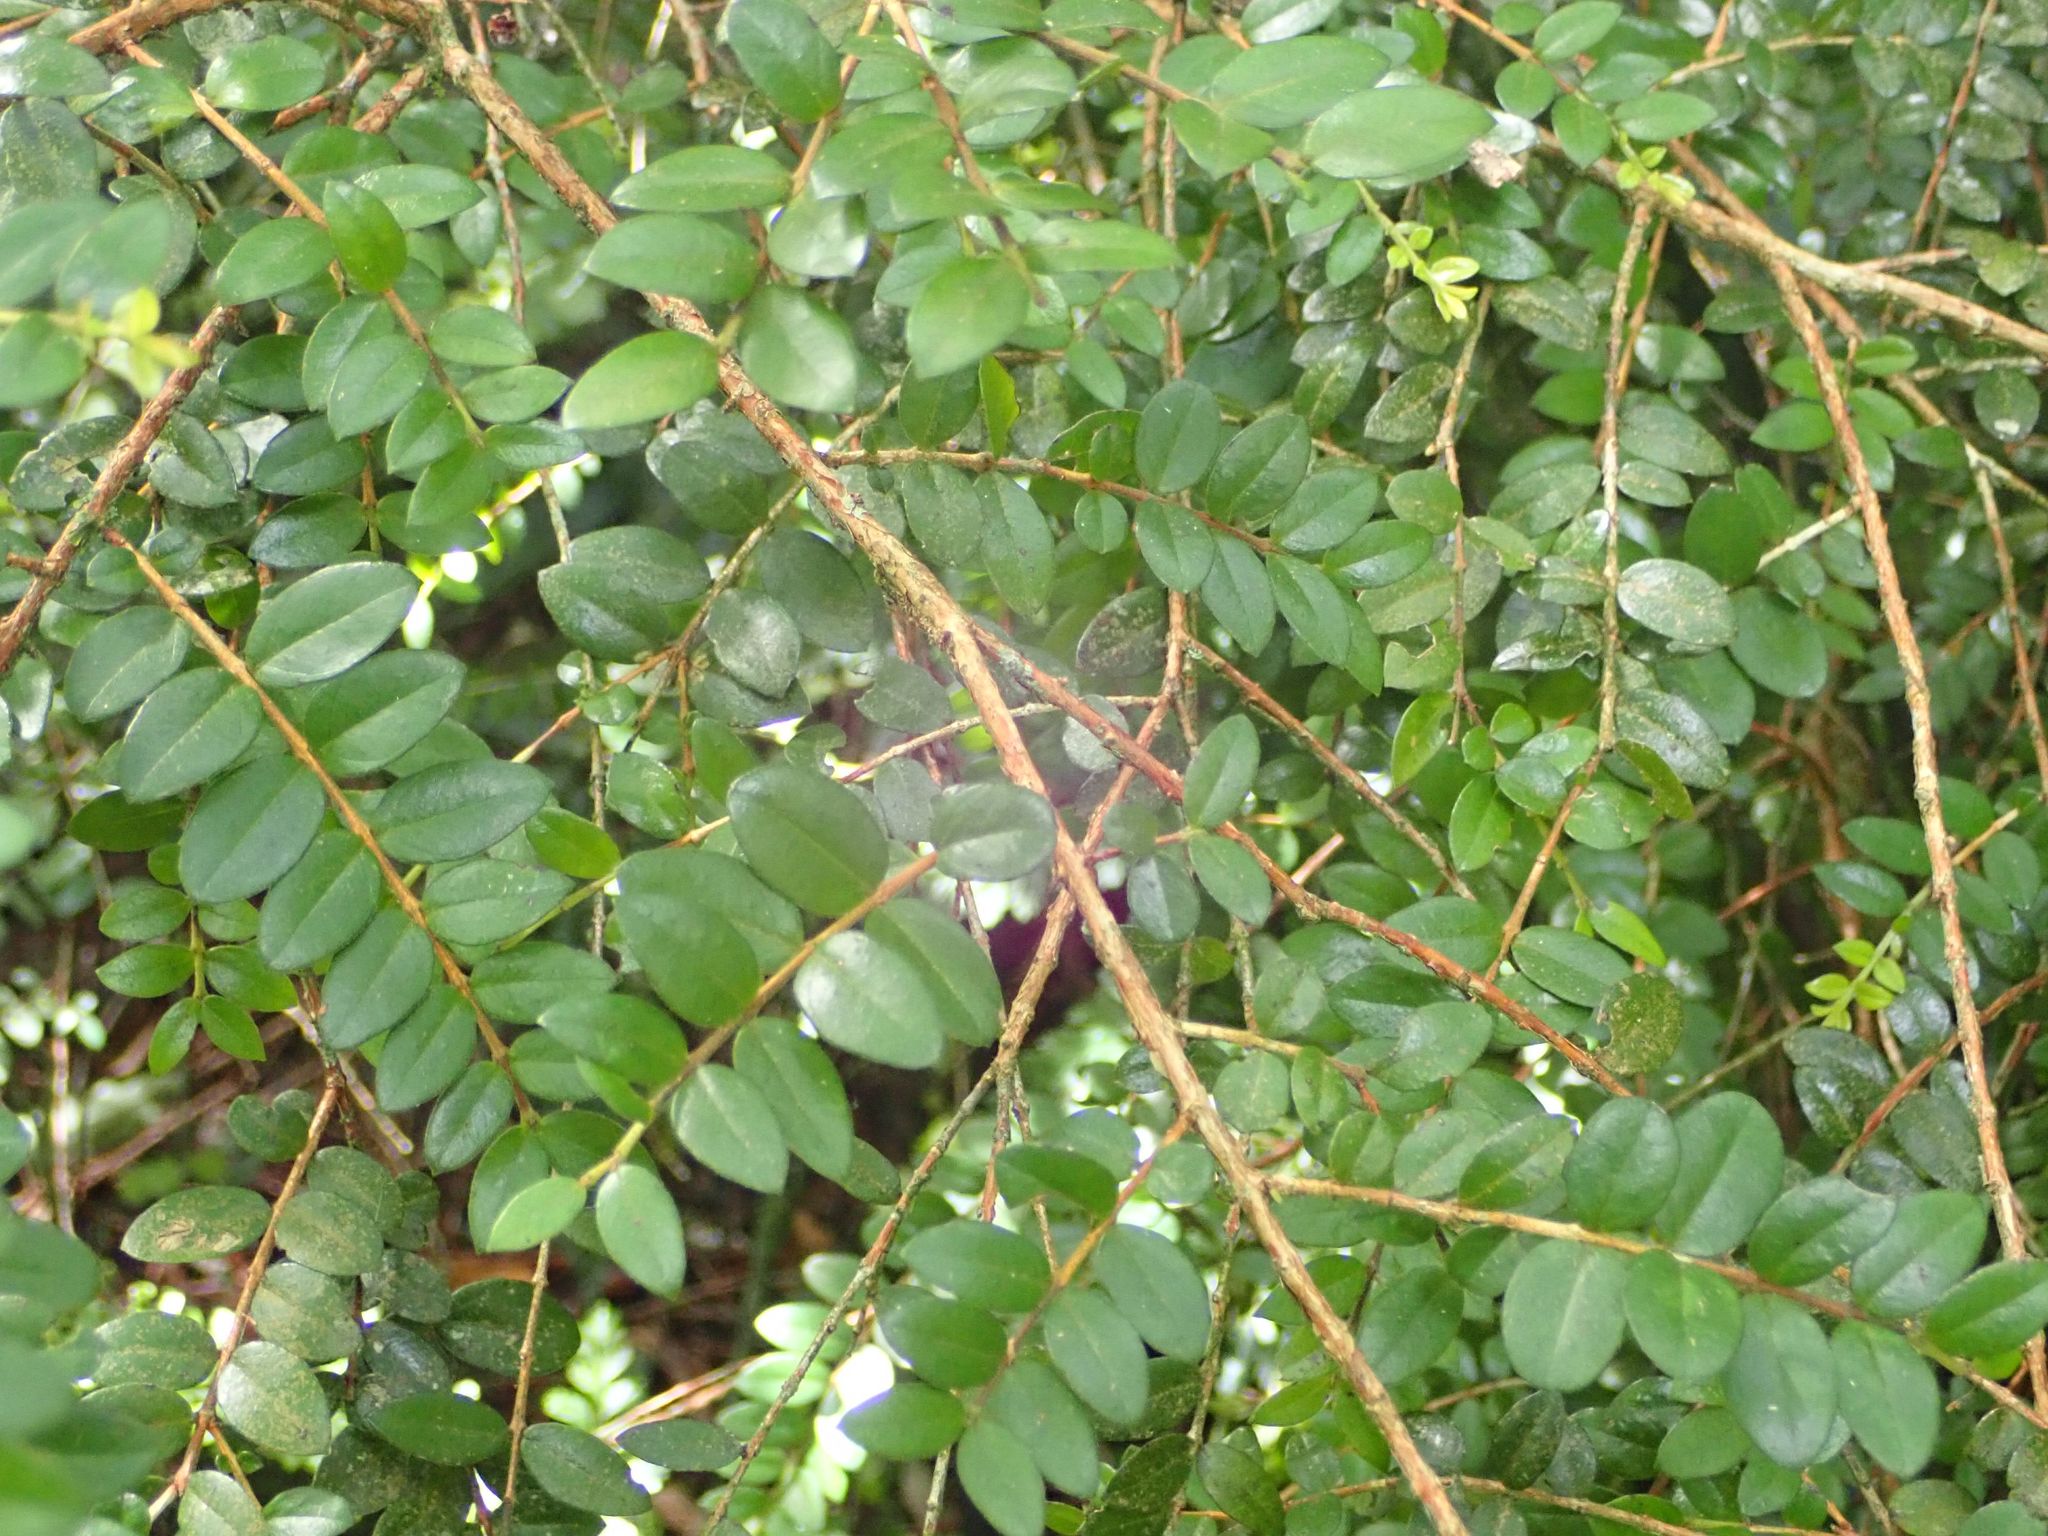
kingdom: Plantae
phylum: Tracheophyta
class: Magnoliopsida
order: Myrtales
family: Myrtaceae
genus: Metrosideros
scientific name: Metrosideros diffusa
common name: Small ratavine
